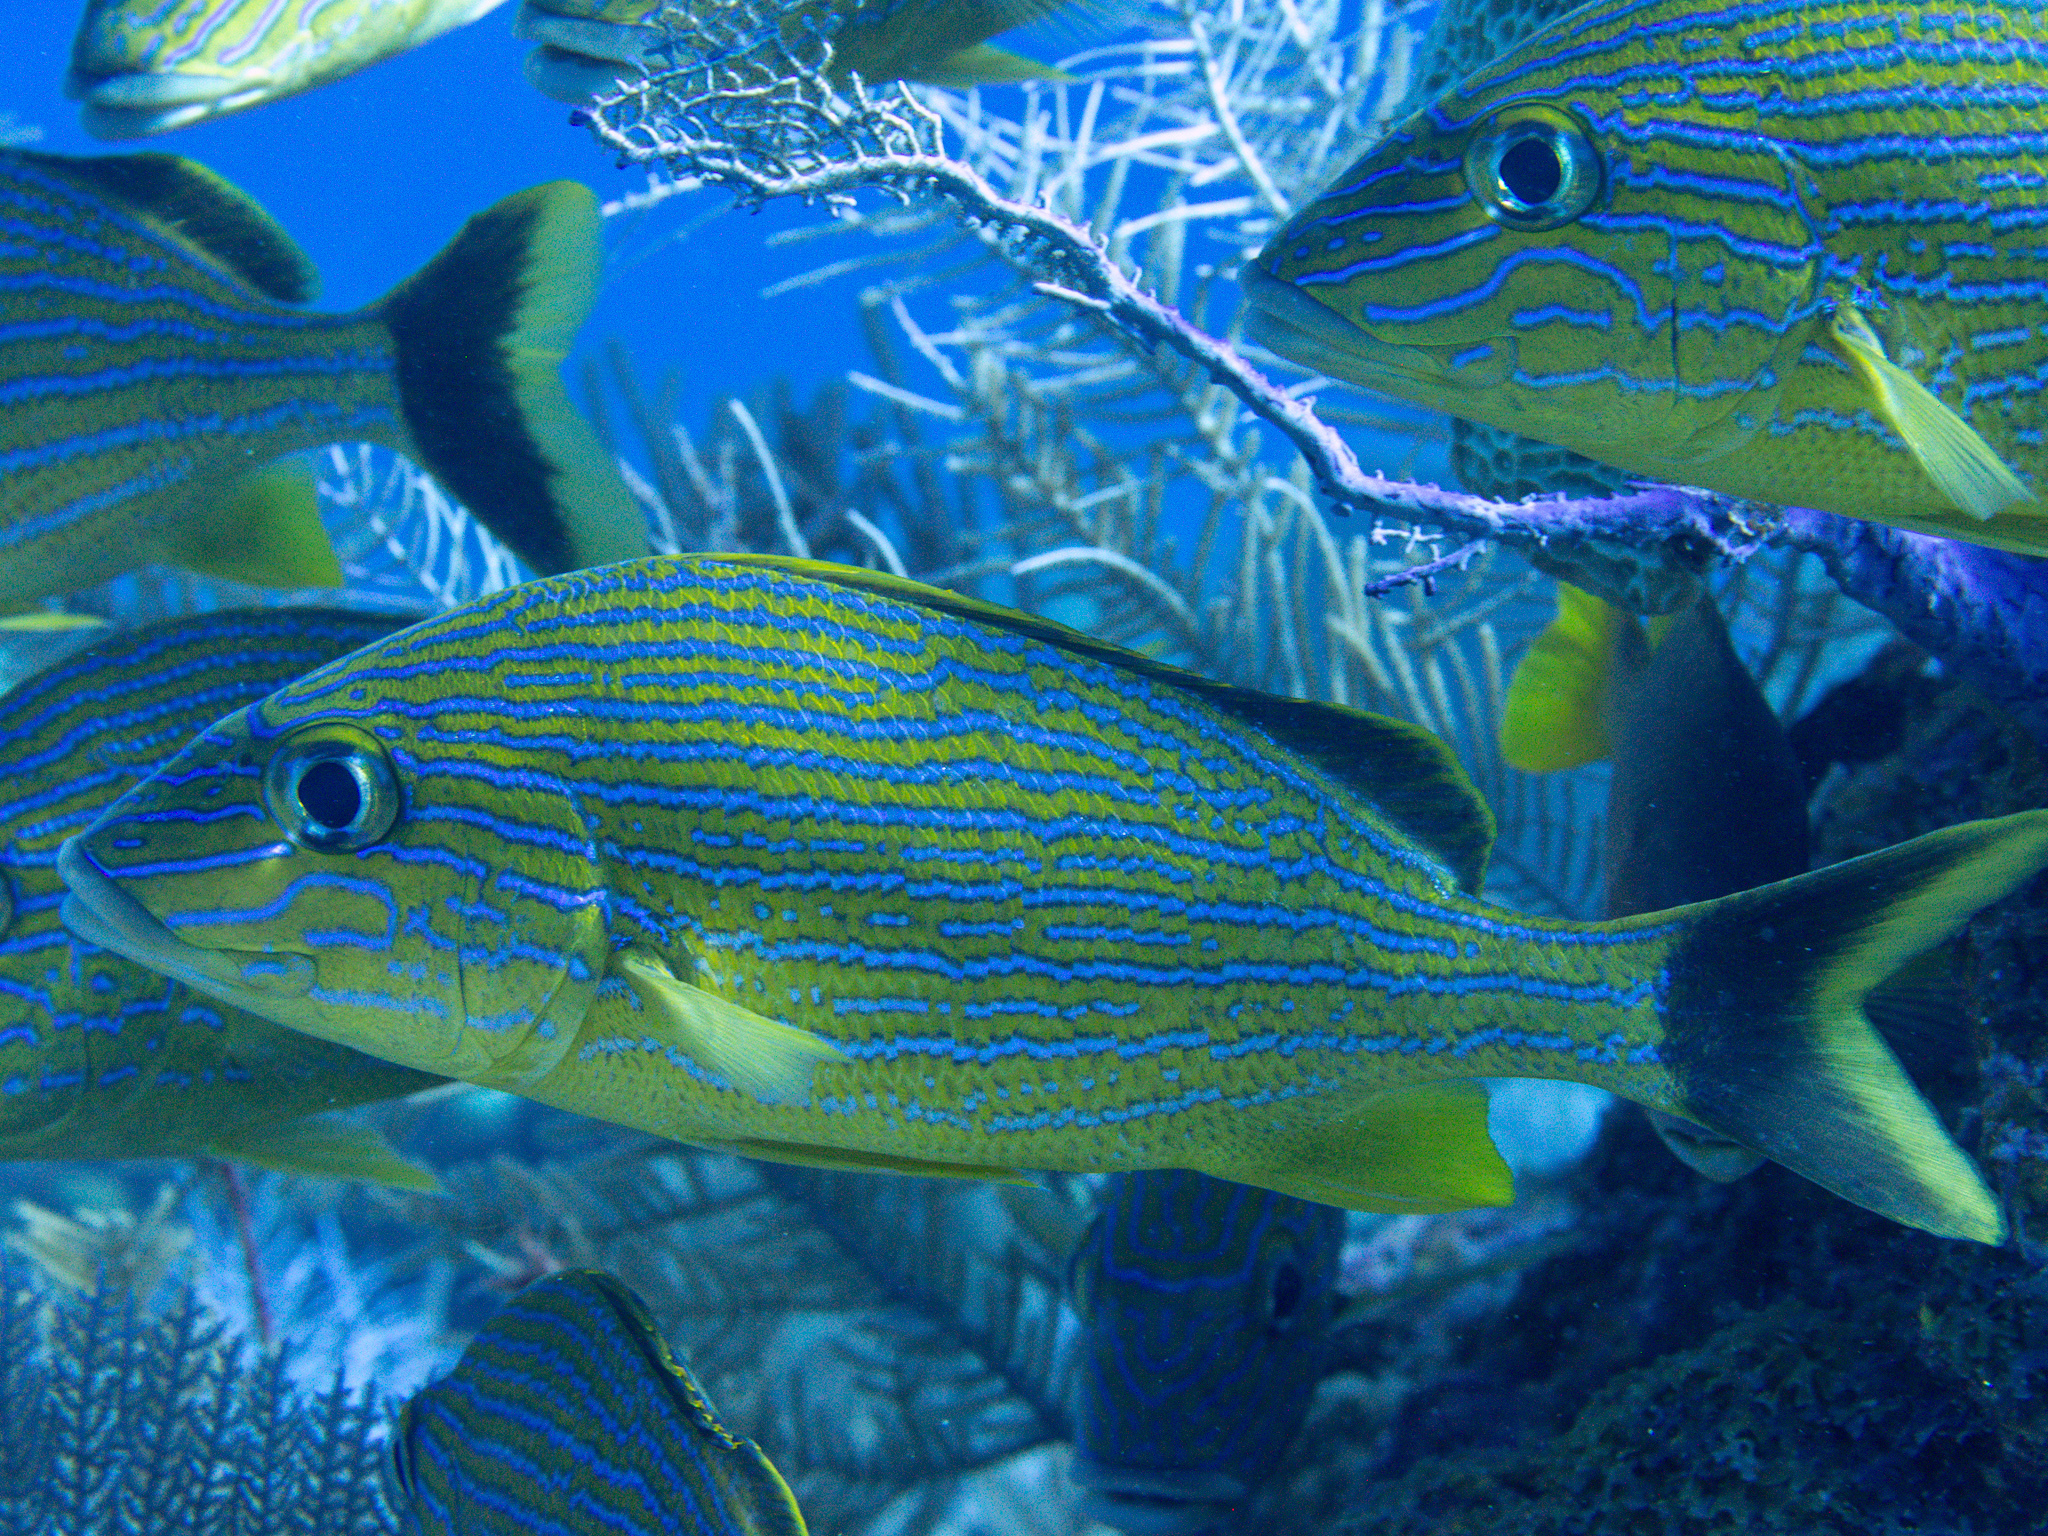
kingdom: Animalia
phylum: Chordata
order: Perciformes
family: Haemulidae
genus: Haemulon
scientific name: Haemulon sciurus
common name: Bluestriped grunt
